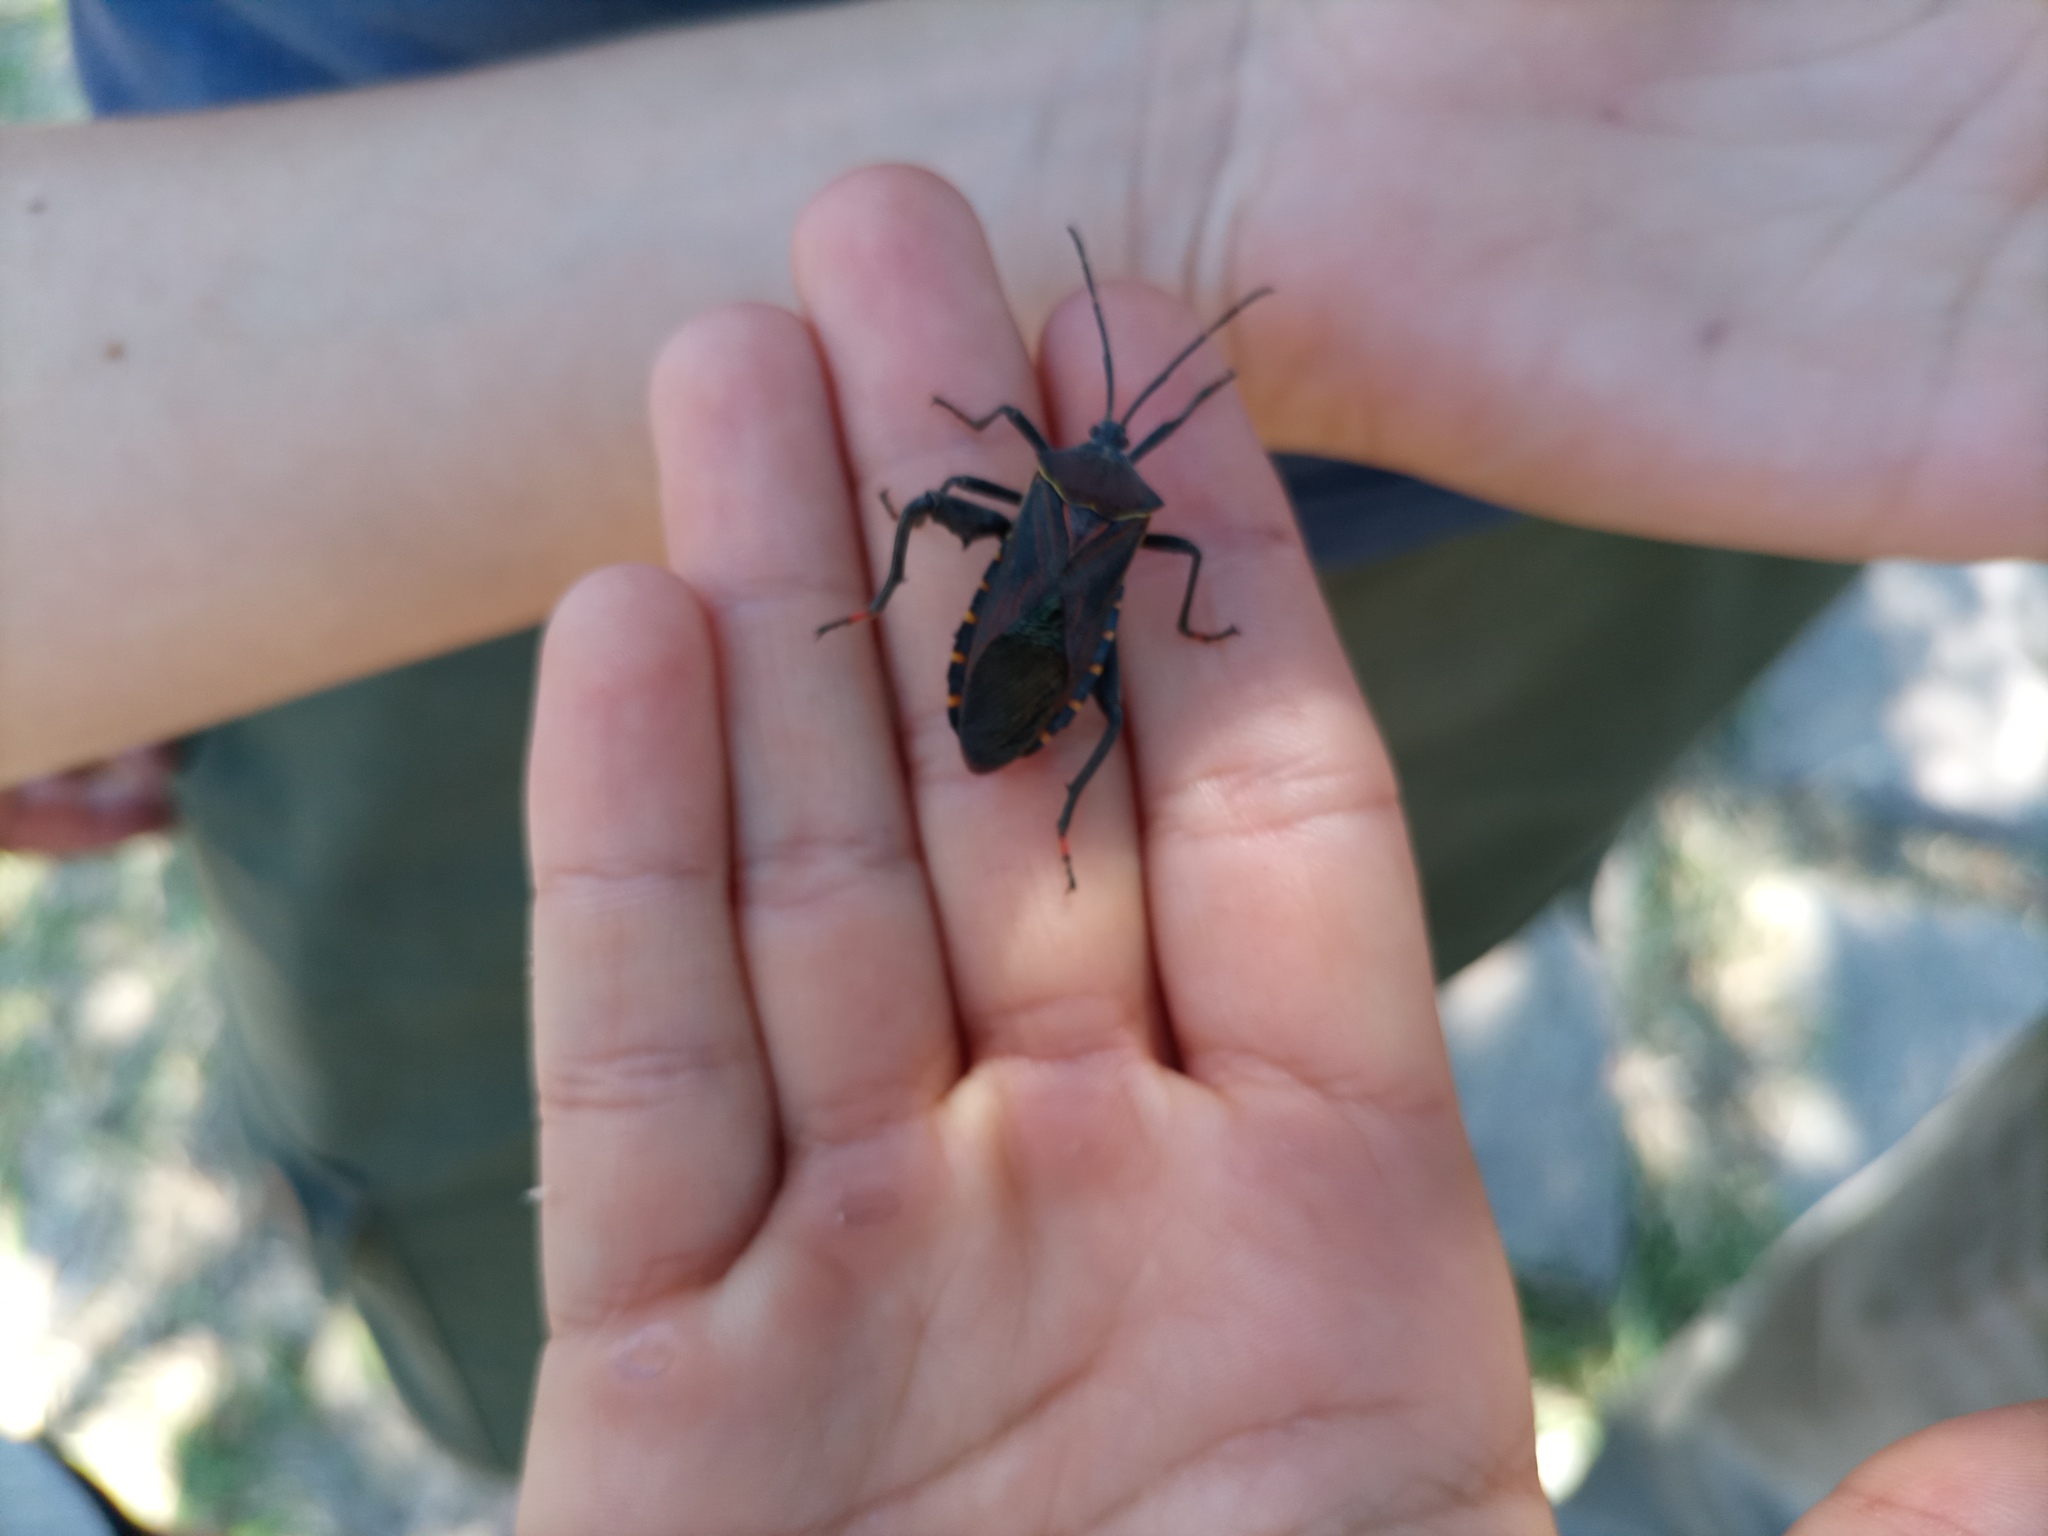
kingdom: Animalia
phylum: Arthropoda
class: Insecta
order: Hemiptera
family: Coreidae
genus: Pachylis
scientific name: Pachylis argentinus
